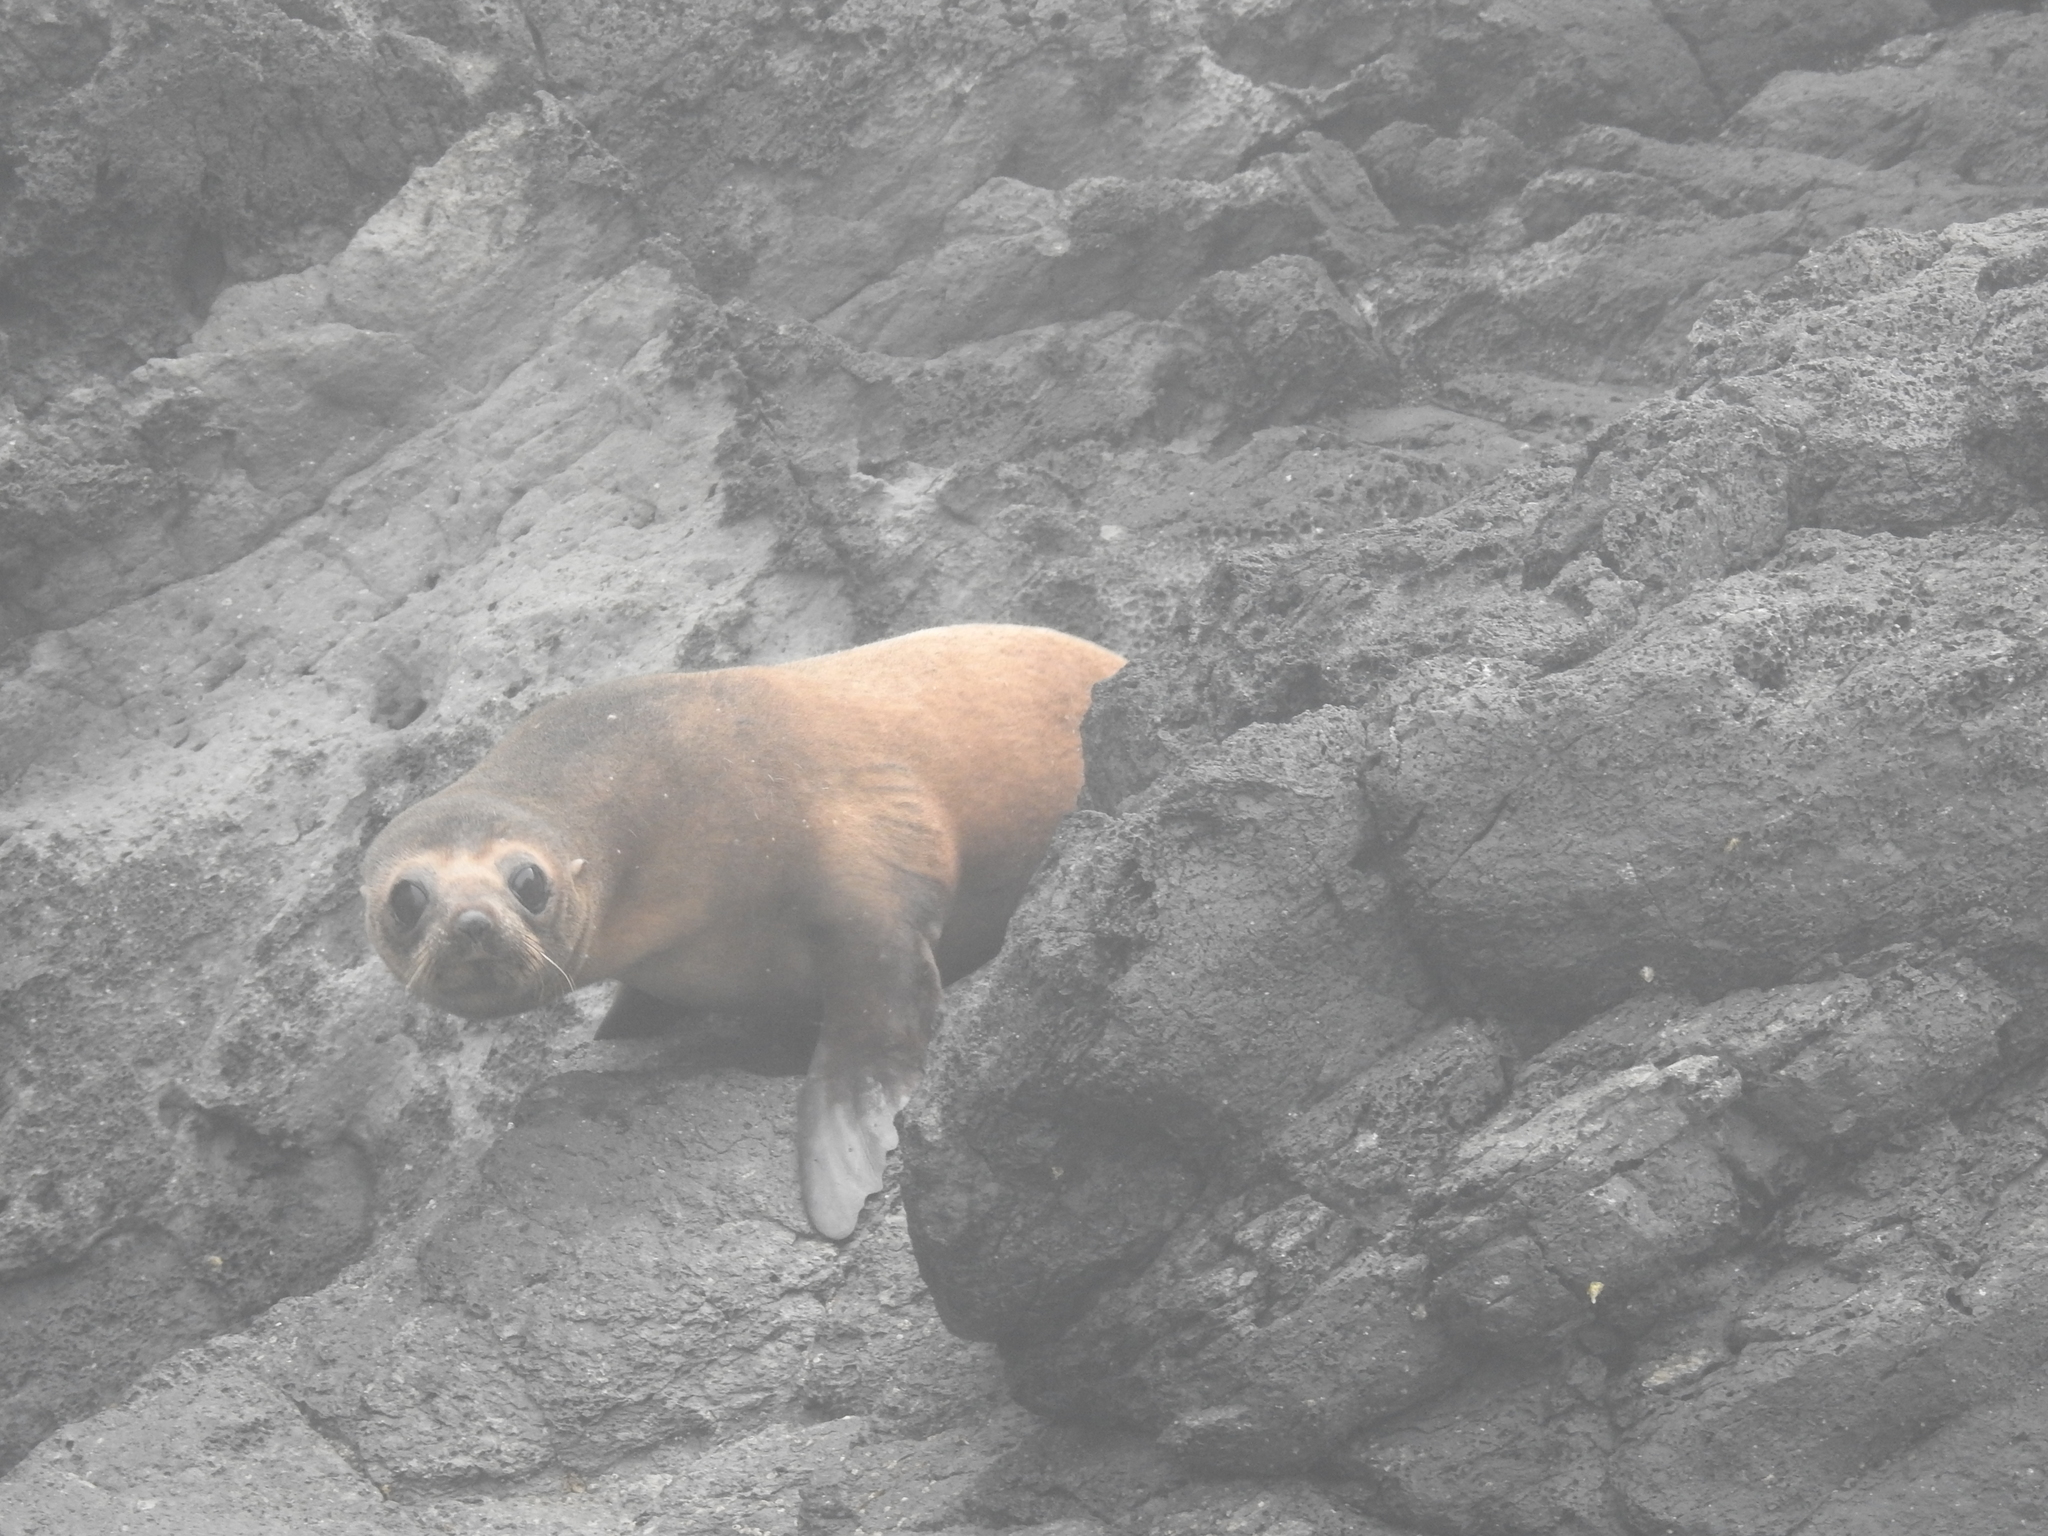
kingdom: Animalia
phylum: Chordata
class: Mammalia
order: Carnivora
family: Otariidae
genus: Arctocephalus
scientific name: Arctocephalus forsteri
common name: New zealand fur seal
